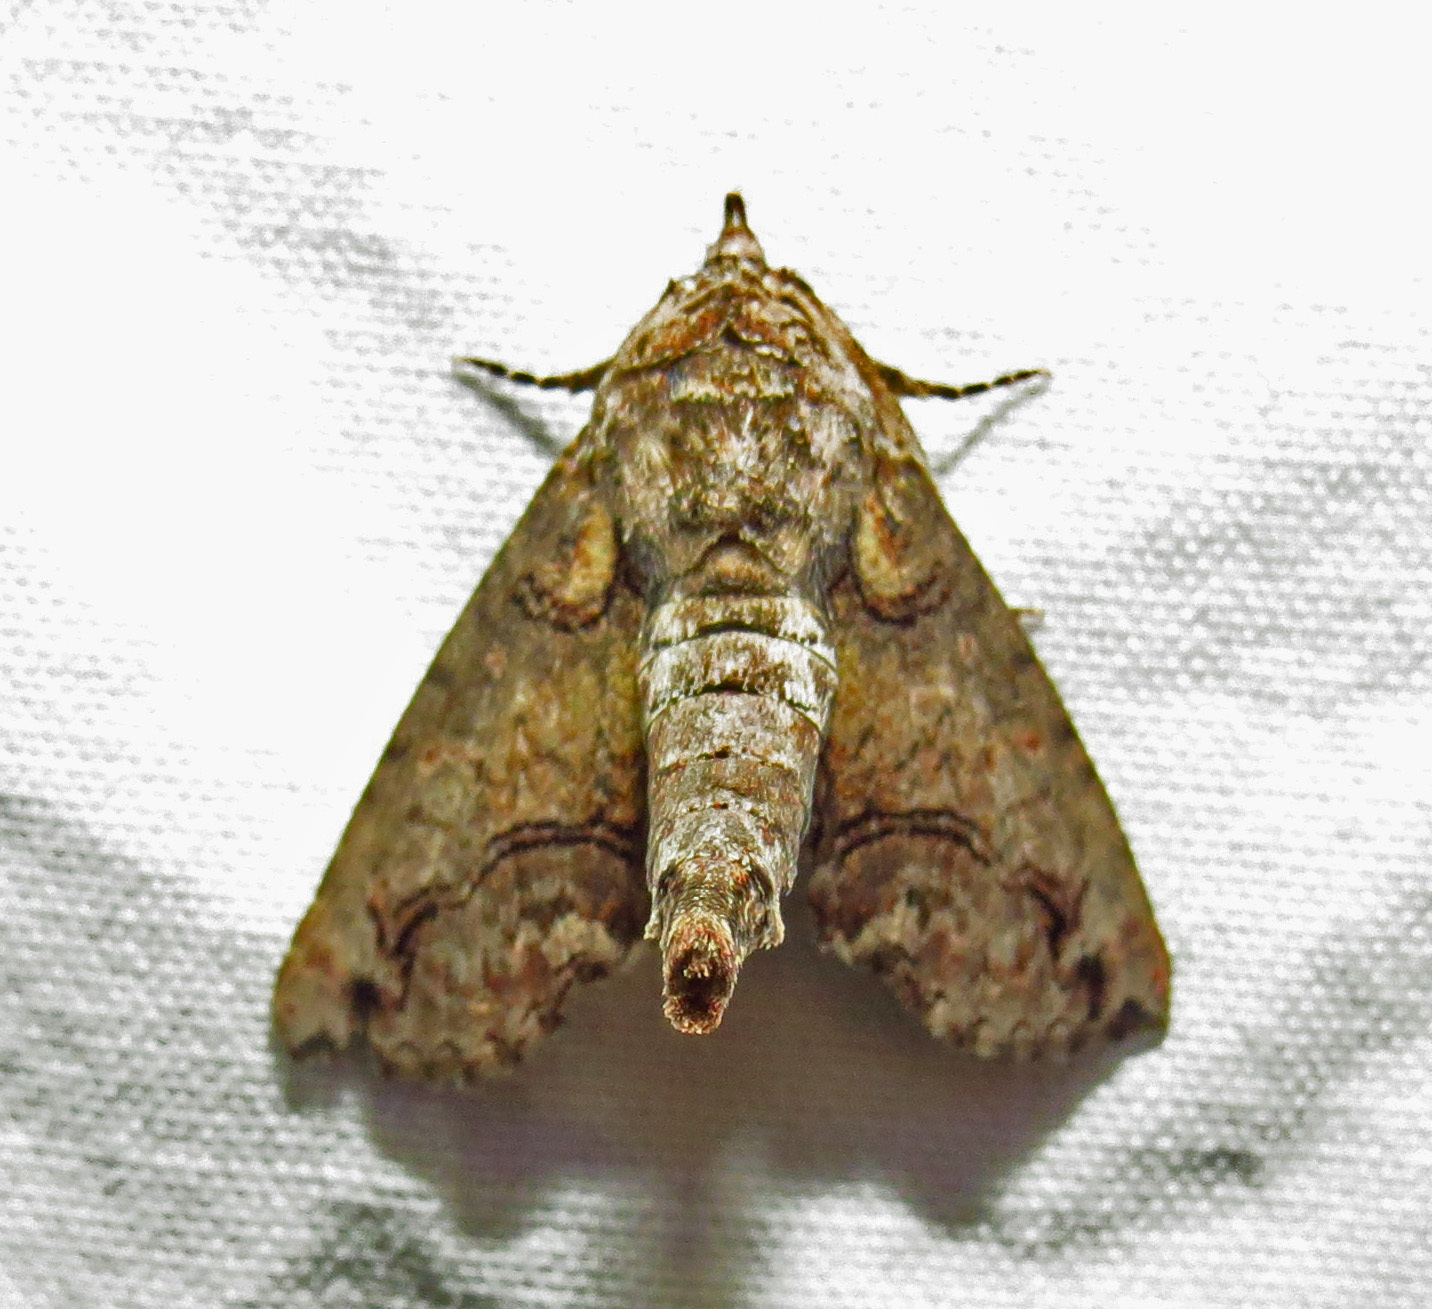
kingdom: Animalia
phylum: Arthropoda
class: Insecta
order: Lepidoptera
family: Euteliidae
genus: Paectes
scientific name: Paectes abrostoloides
